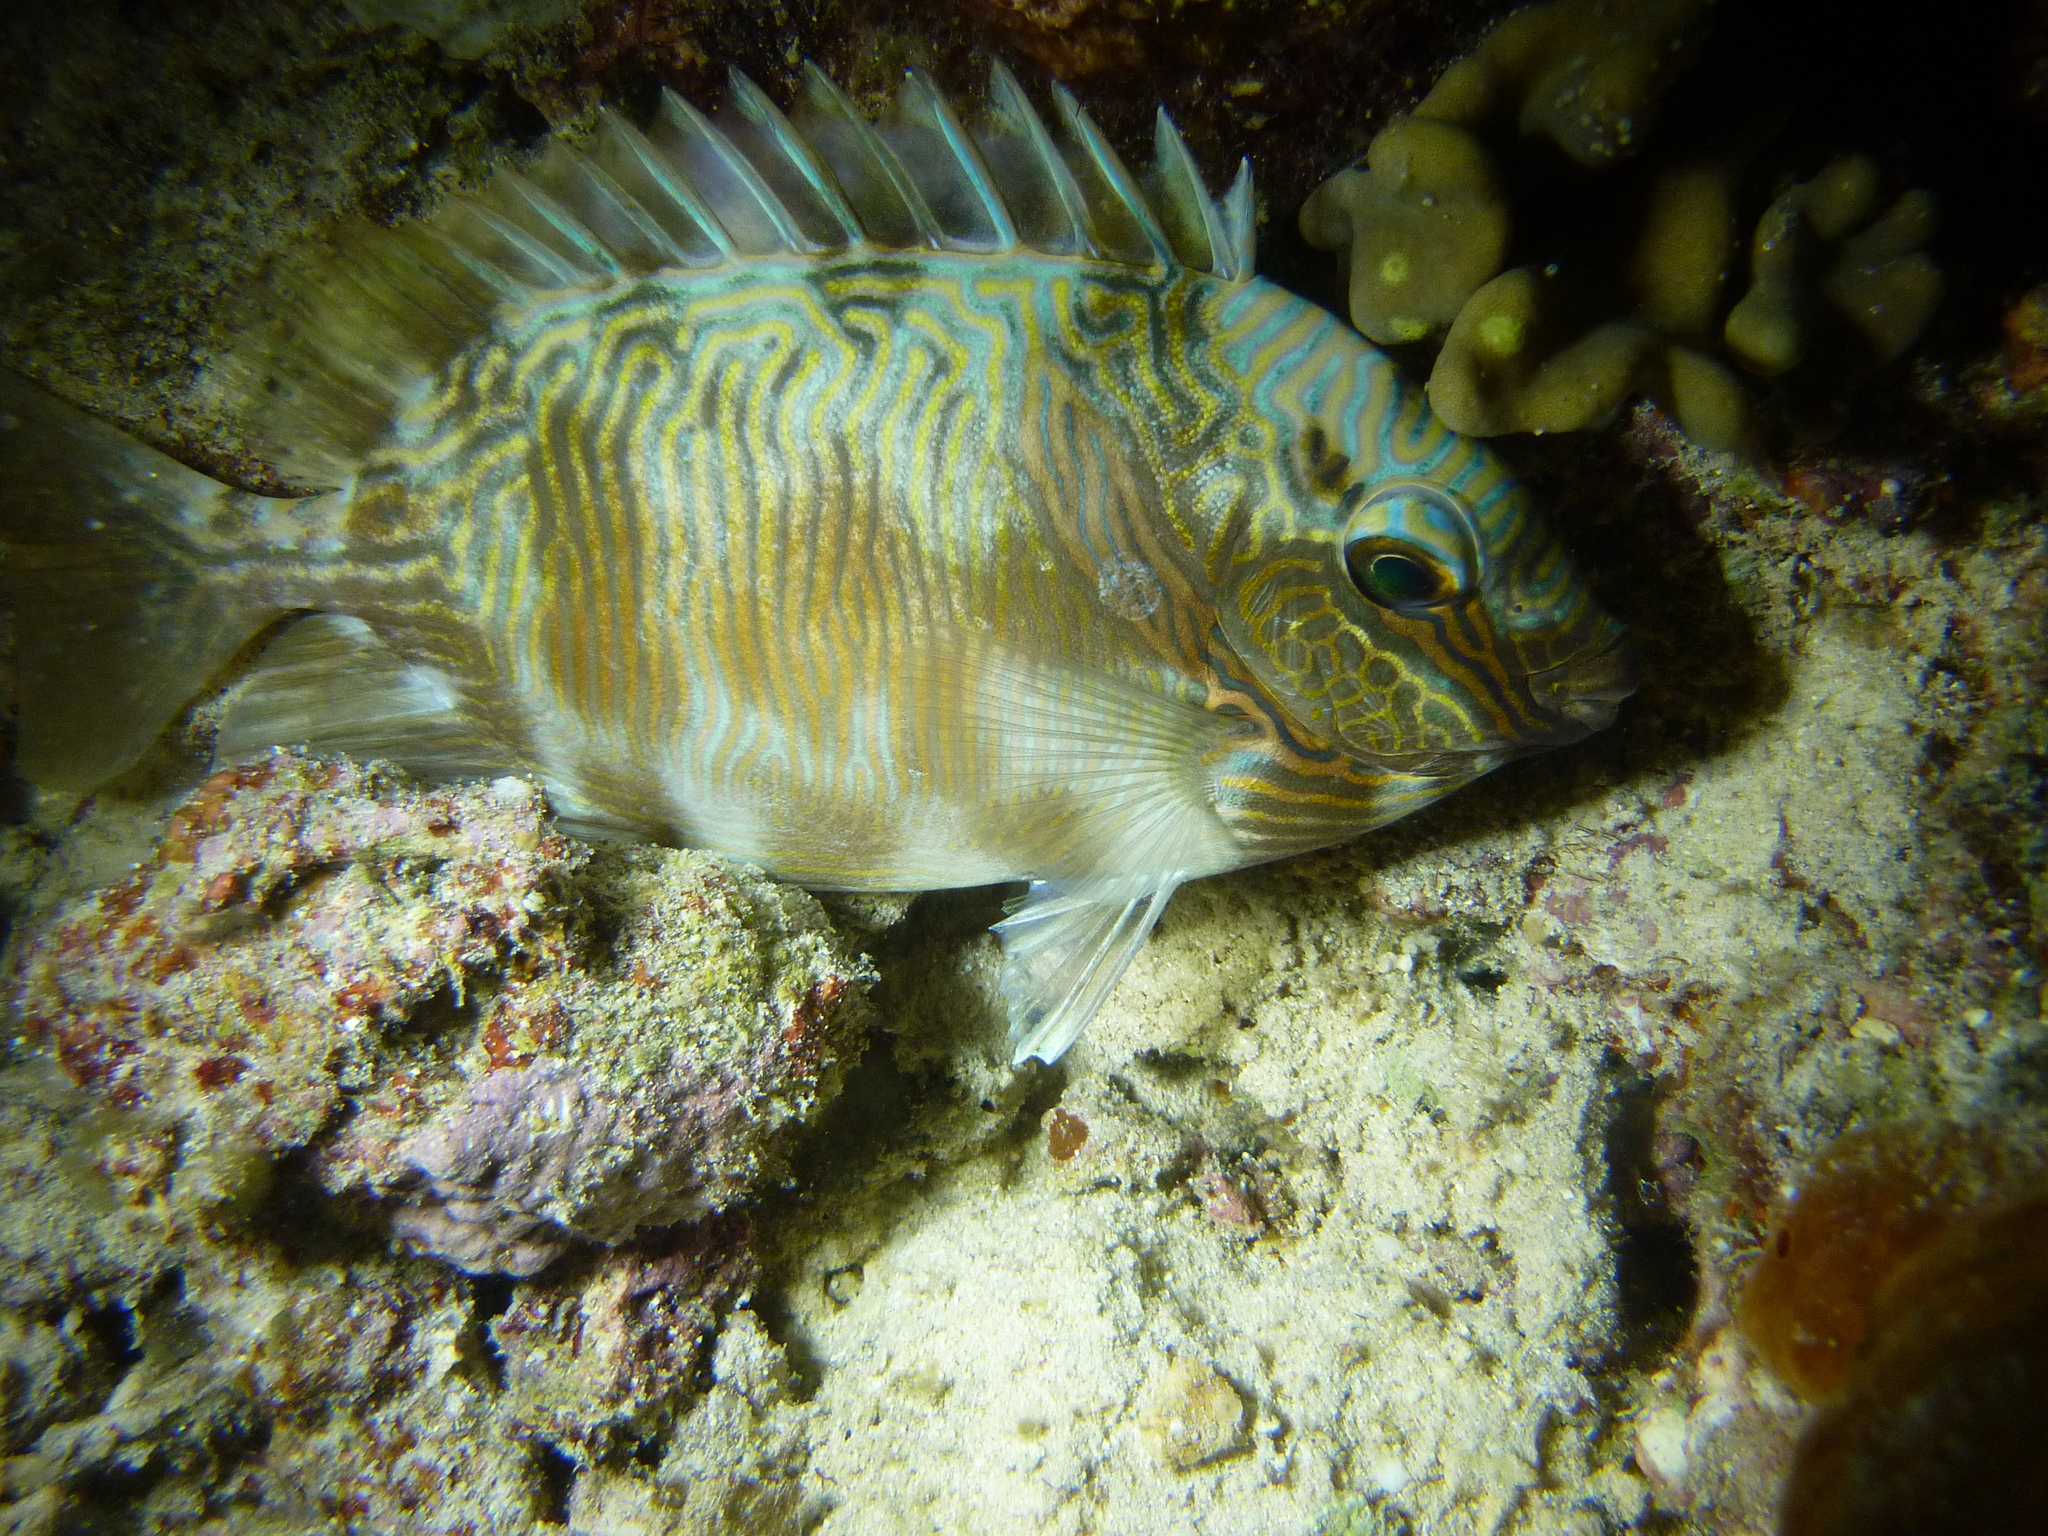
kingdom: Animalia
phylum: Chordata
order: Perciformes
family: Siganidae
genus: Siganus
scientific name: Siganus doliatus
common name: Barred spinefoot
